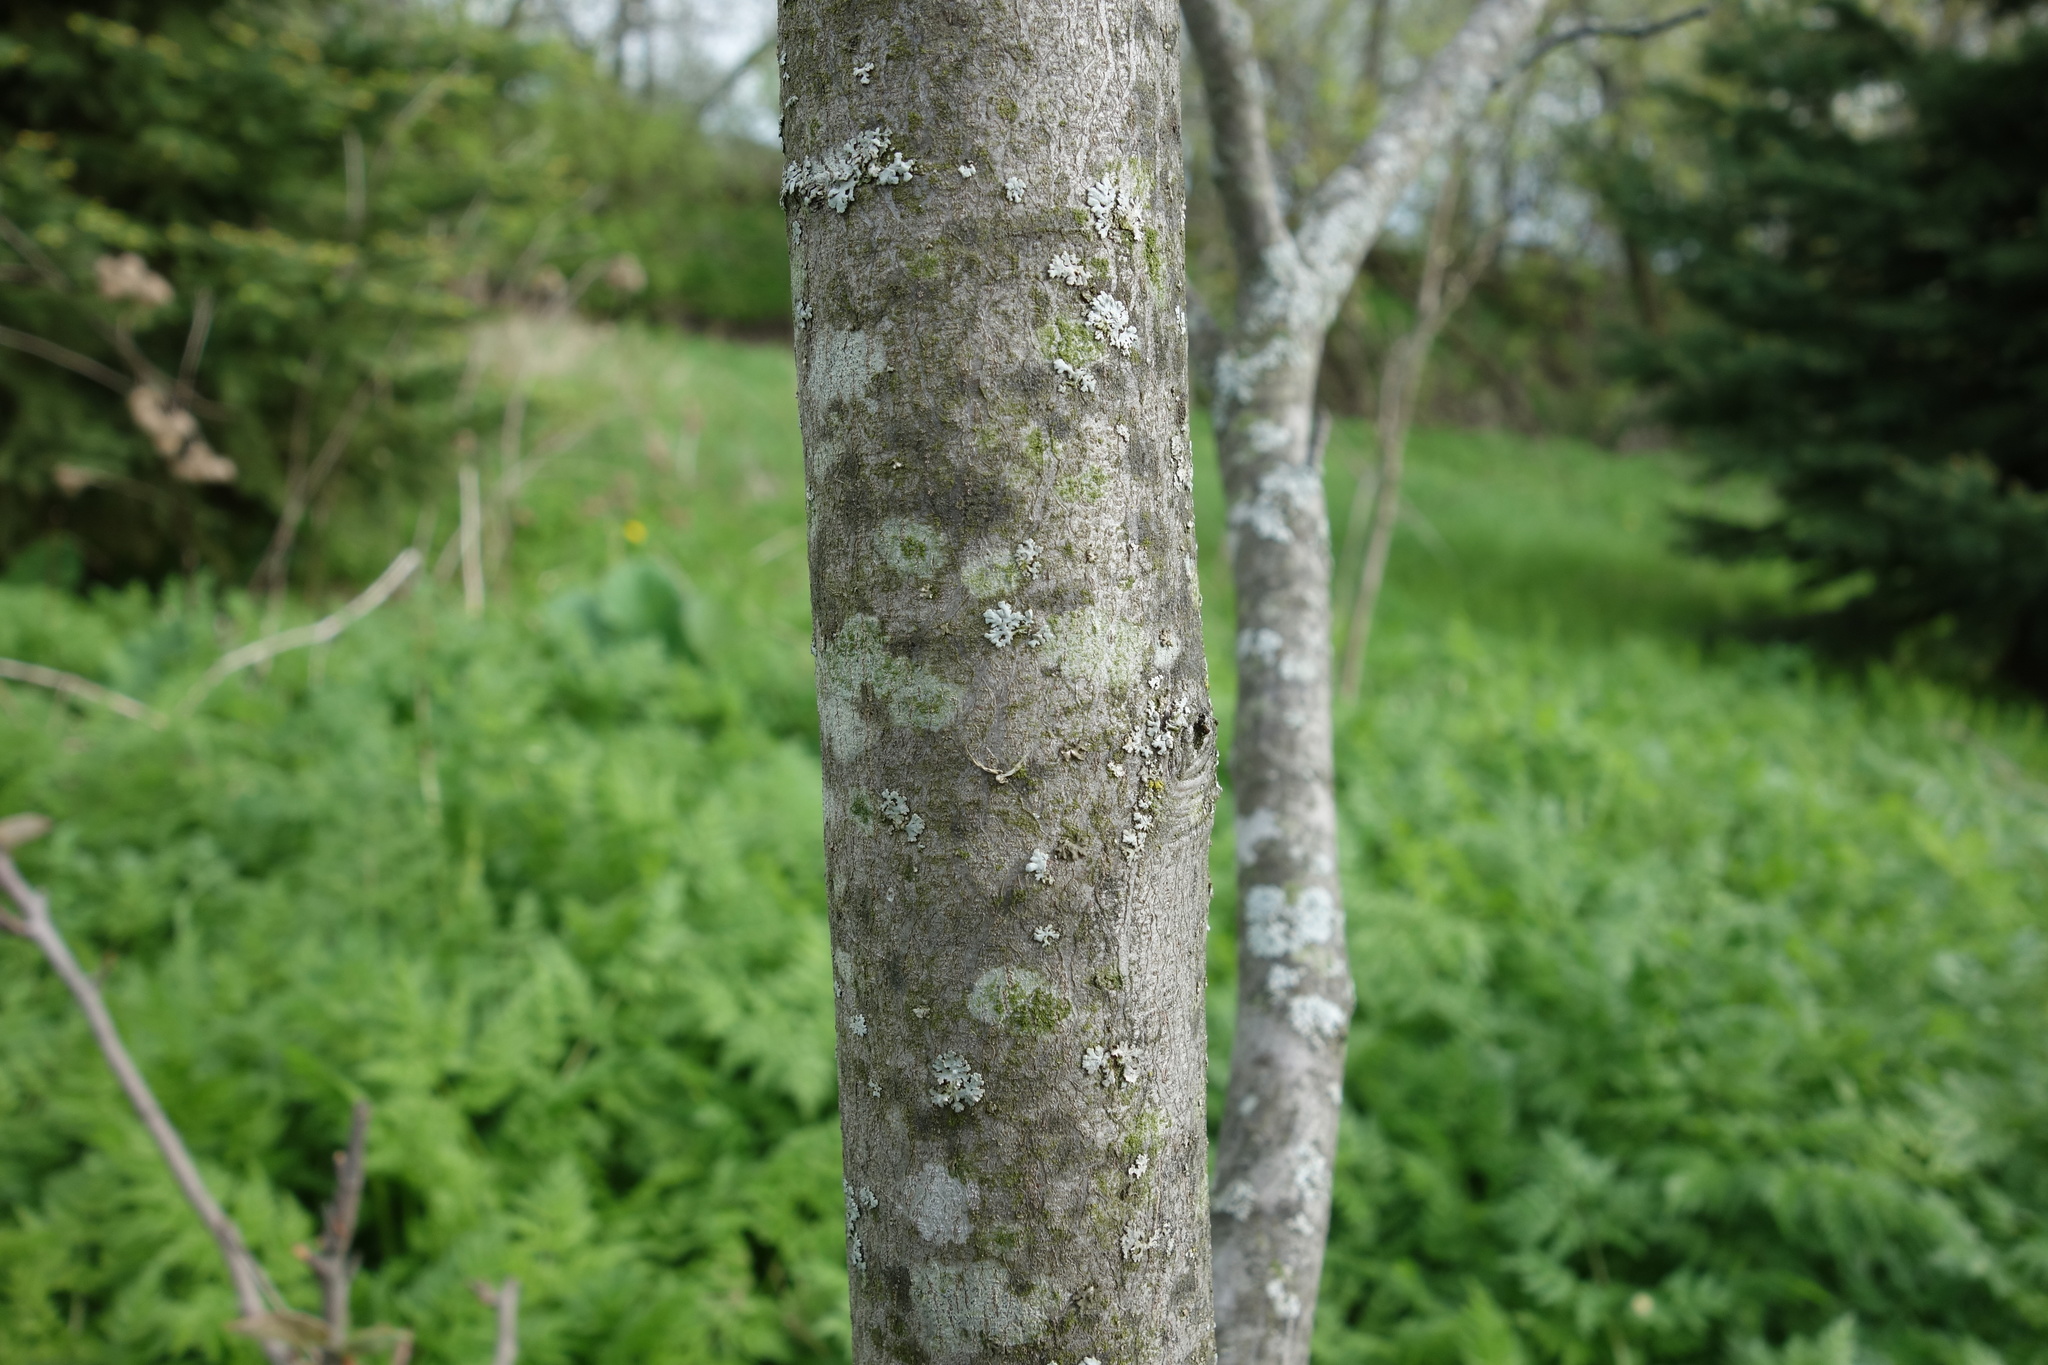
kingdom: Plantae
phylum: Tracheophyta
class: Magnoliopsida
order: Rosales
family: Rosaceae
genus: Amelanchier
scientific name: Amelanchier arborea
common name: Downy serviceberry
